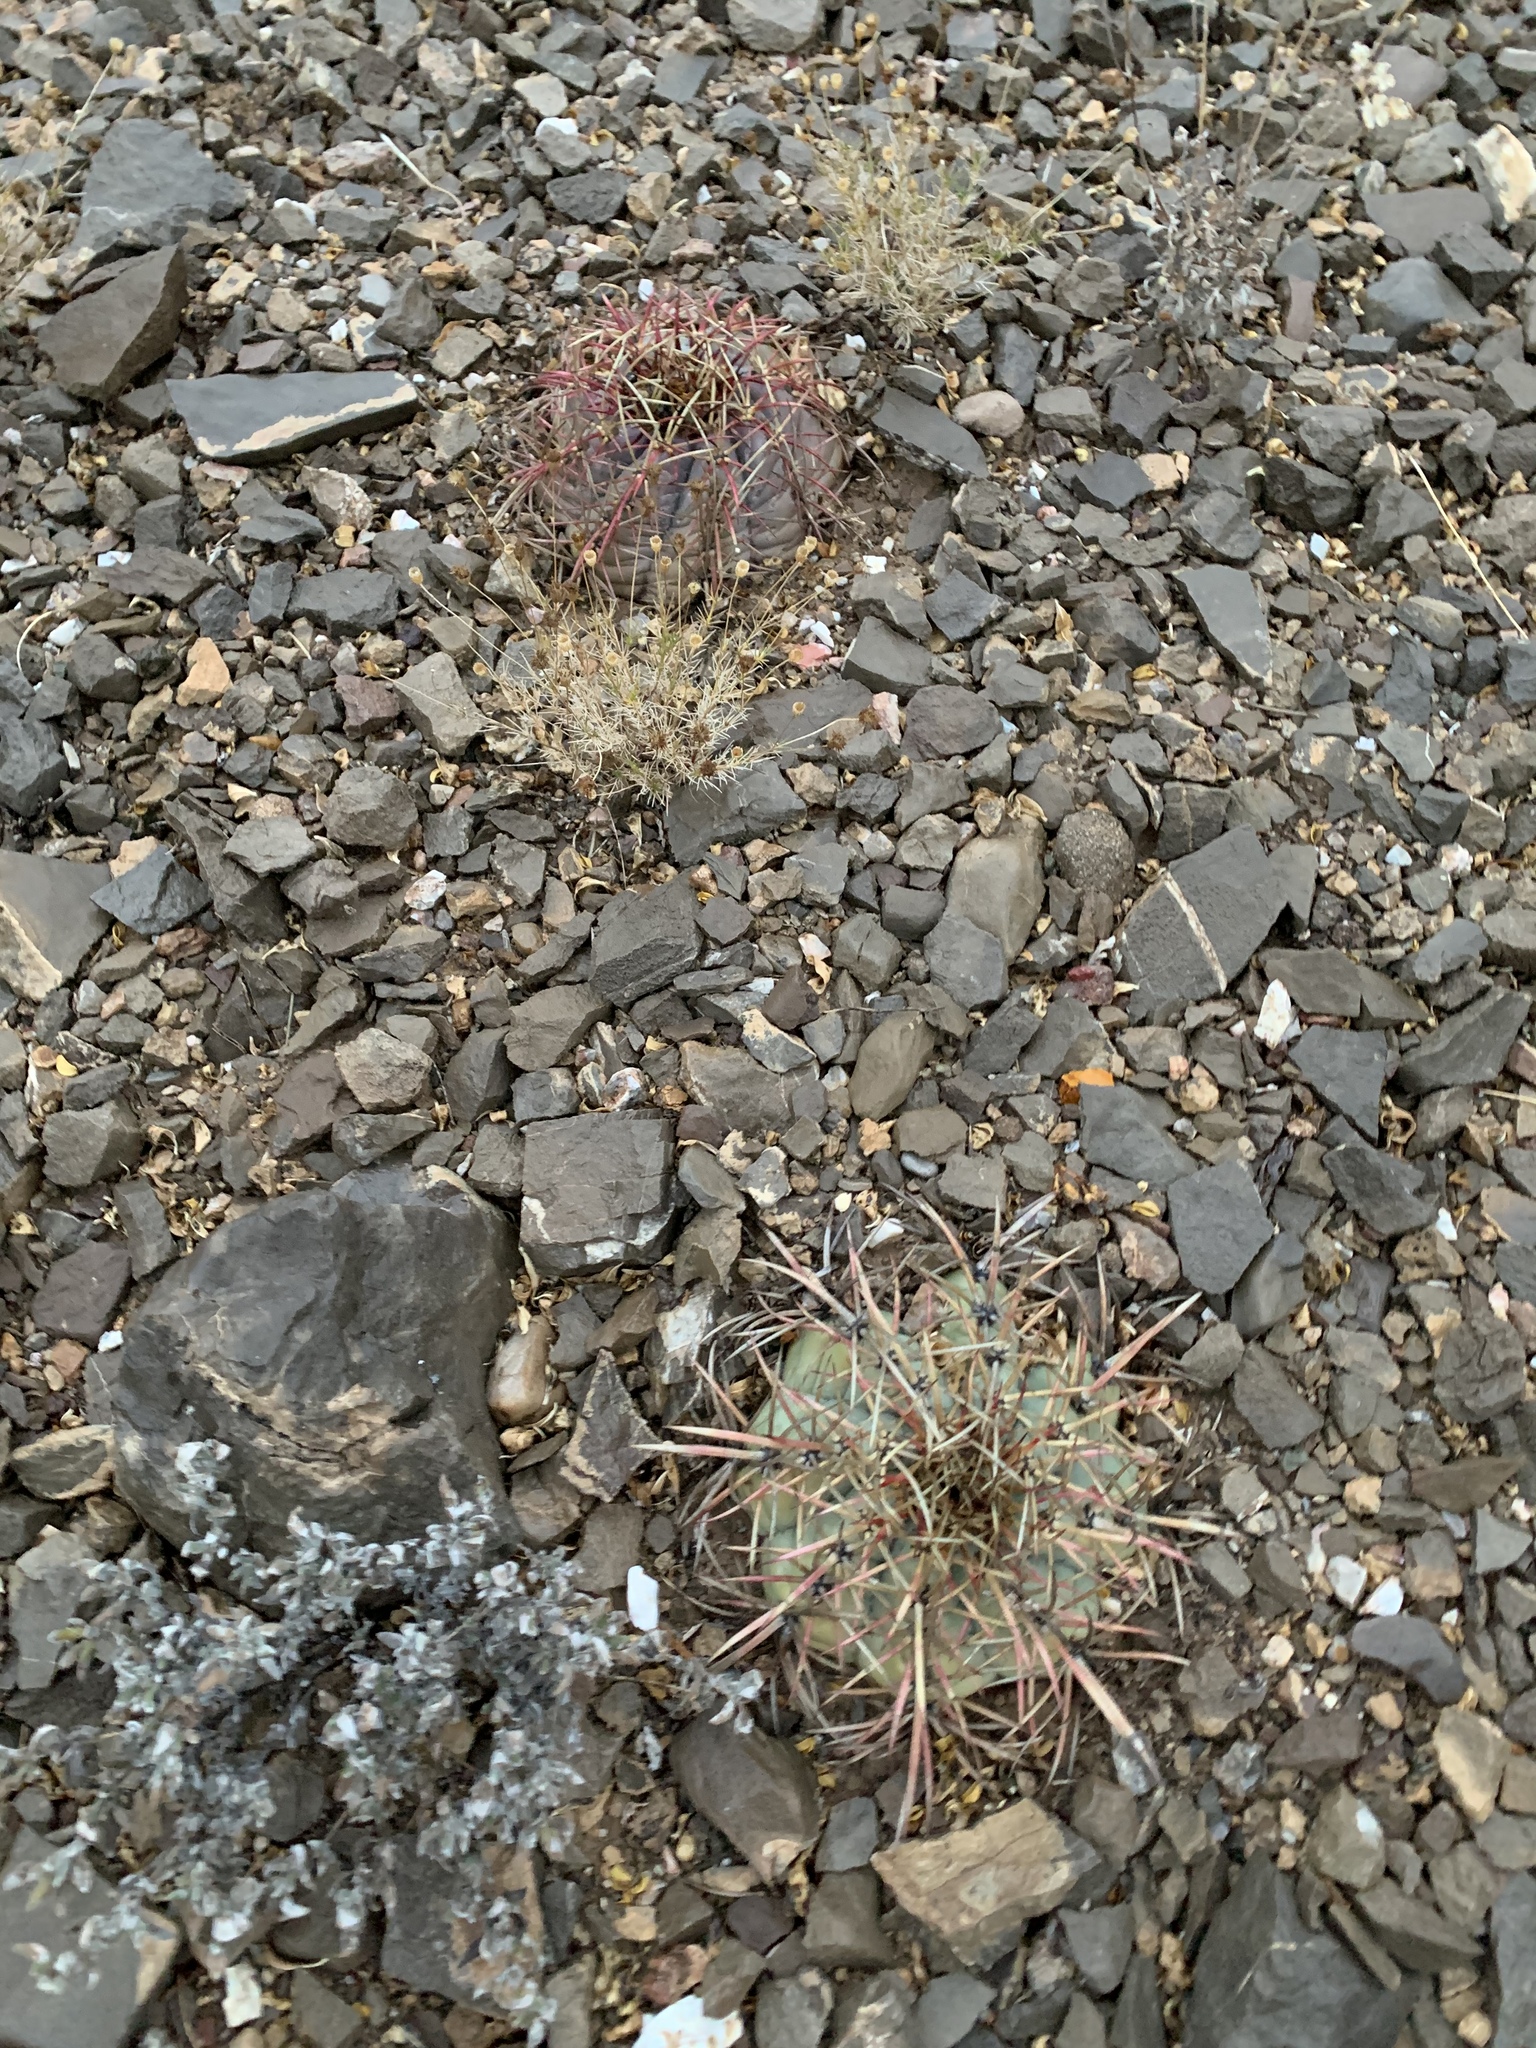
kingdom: Plantae
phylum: Tracheophyta
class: Magnoliopsida
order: Caryophyllales
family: Cactaceae
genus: Echinocactus
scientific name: Echinocactus horizonthalonius
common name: Devilshead
